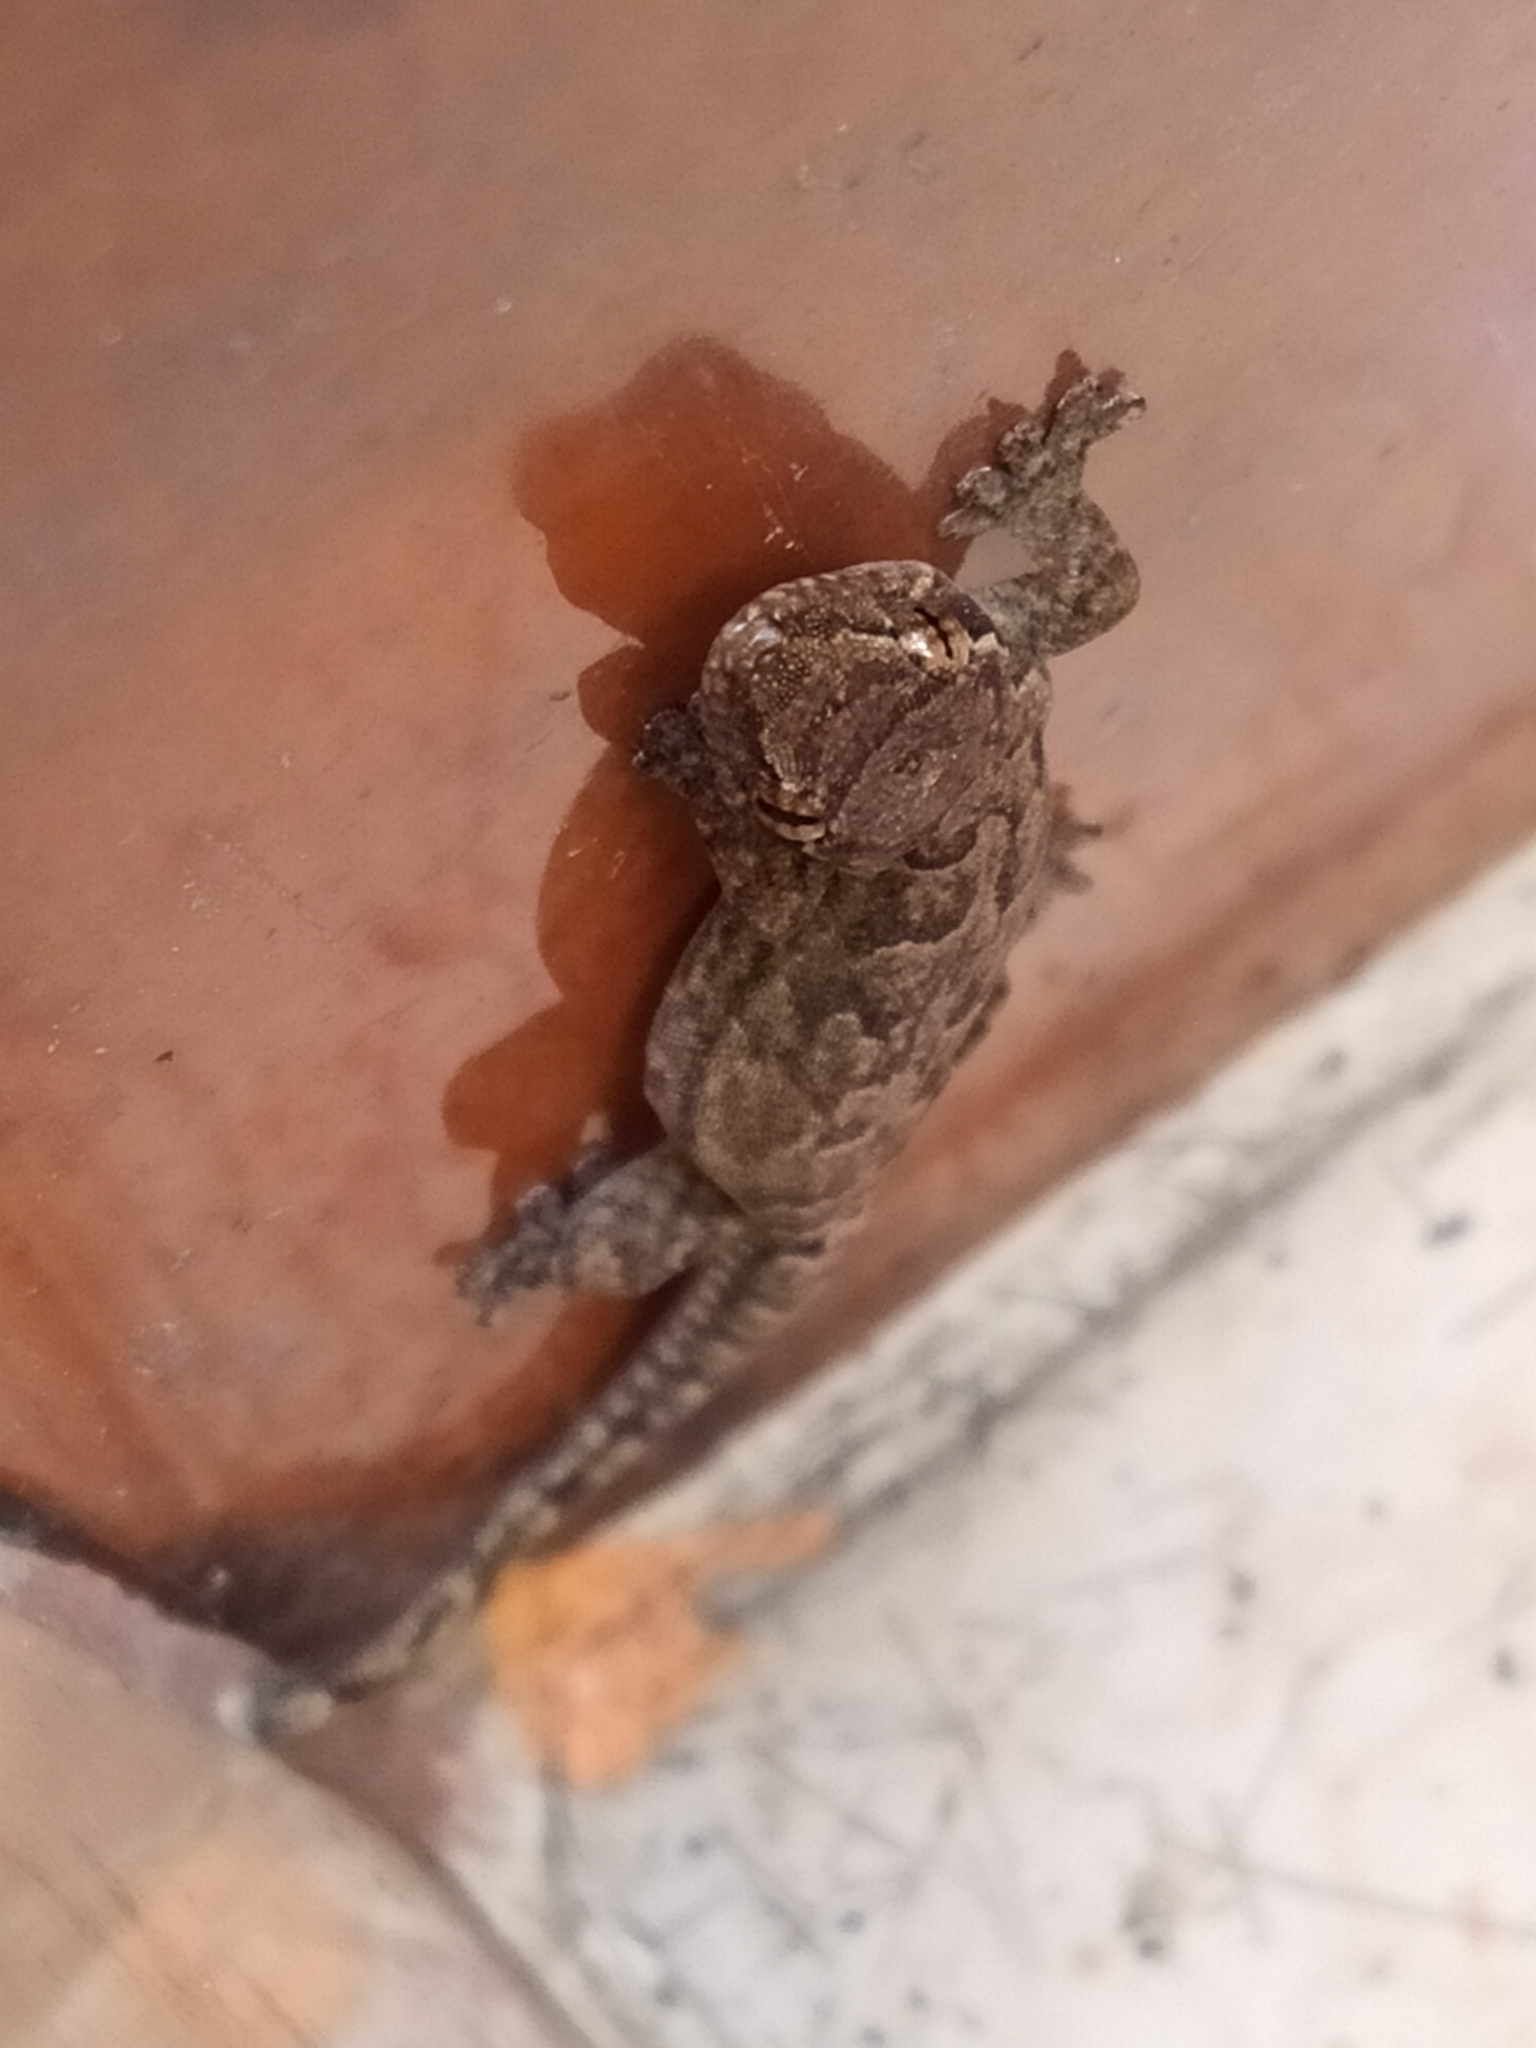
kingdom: Animalia
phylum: Chordata
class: Squamata
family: Gekkonidae
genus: Lepidodactylus
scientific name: Lepidodactylus lugubris
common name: Mourning gecko
